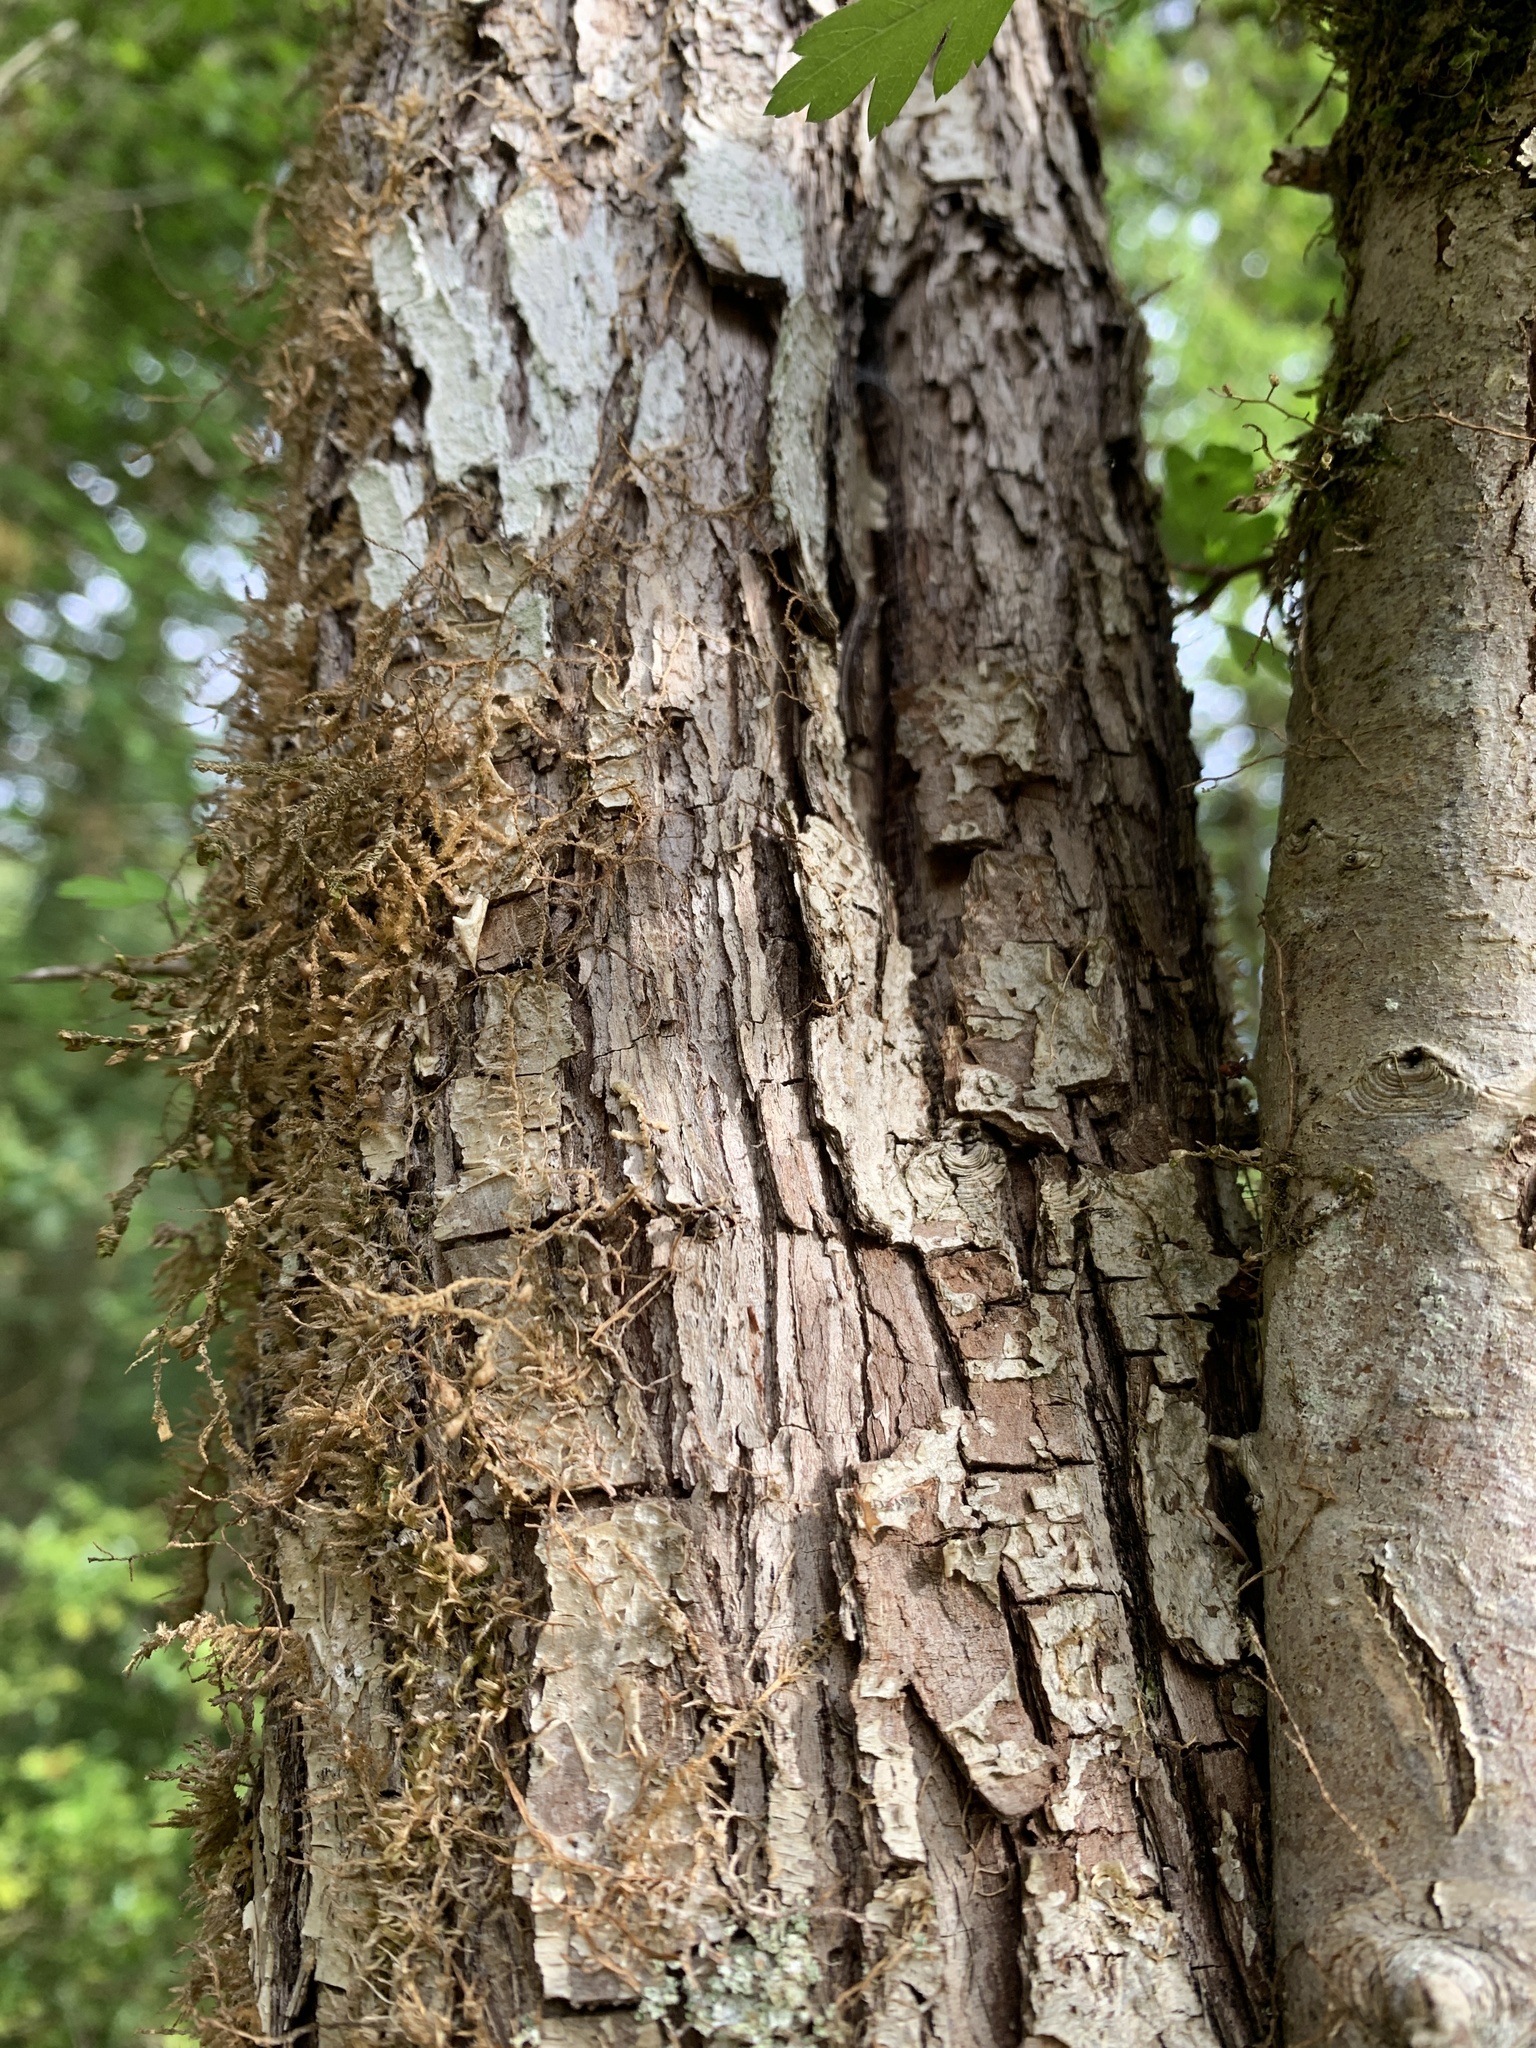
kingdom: Plantae
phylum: Tracheophyta
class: Magnoliopsida
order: Rosales
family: Rosaceae
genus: Crataegus
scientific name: Crataegus monogyna
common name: Hawthorn
